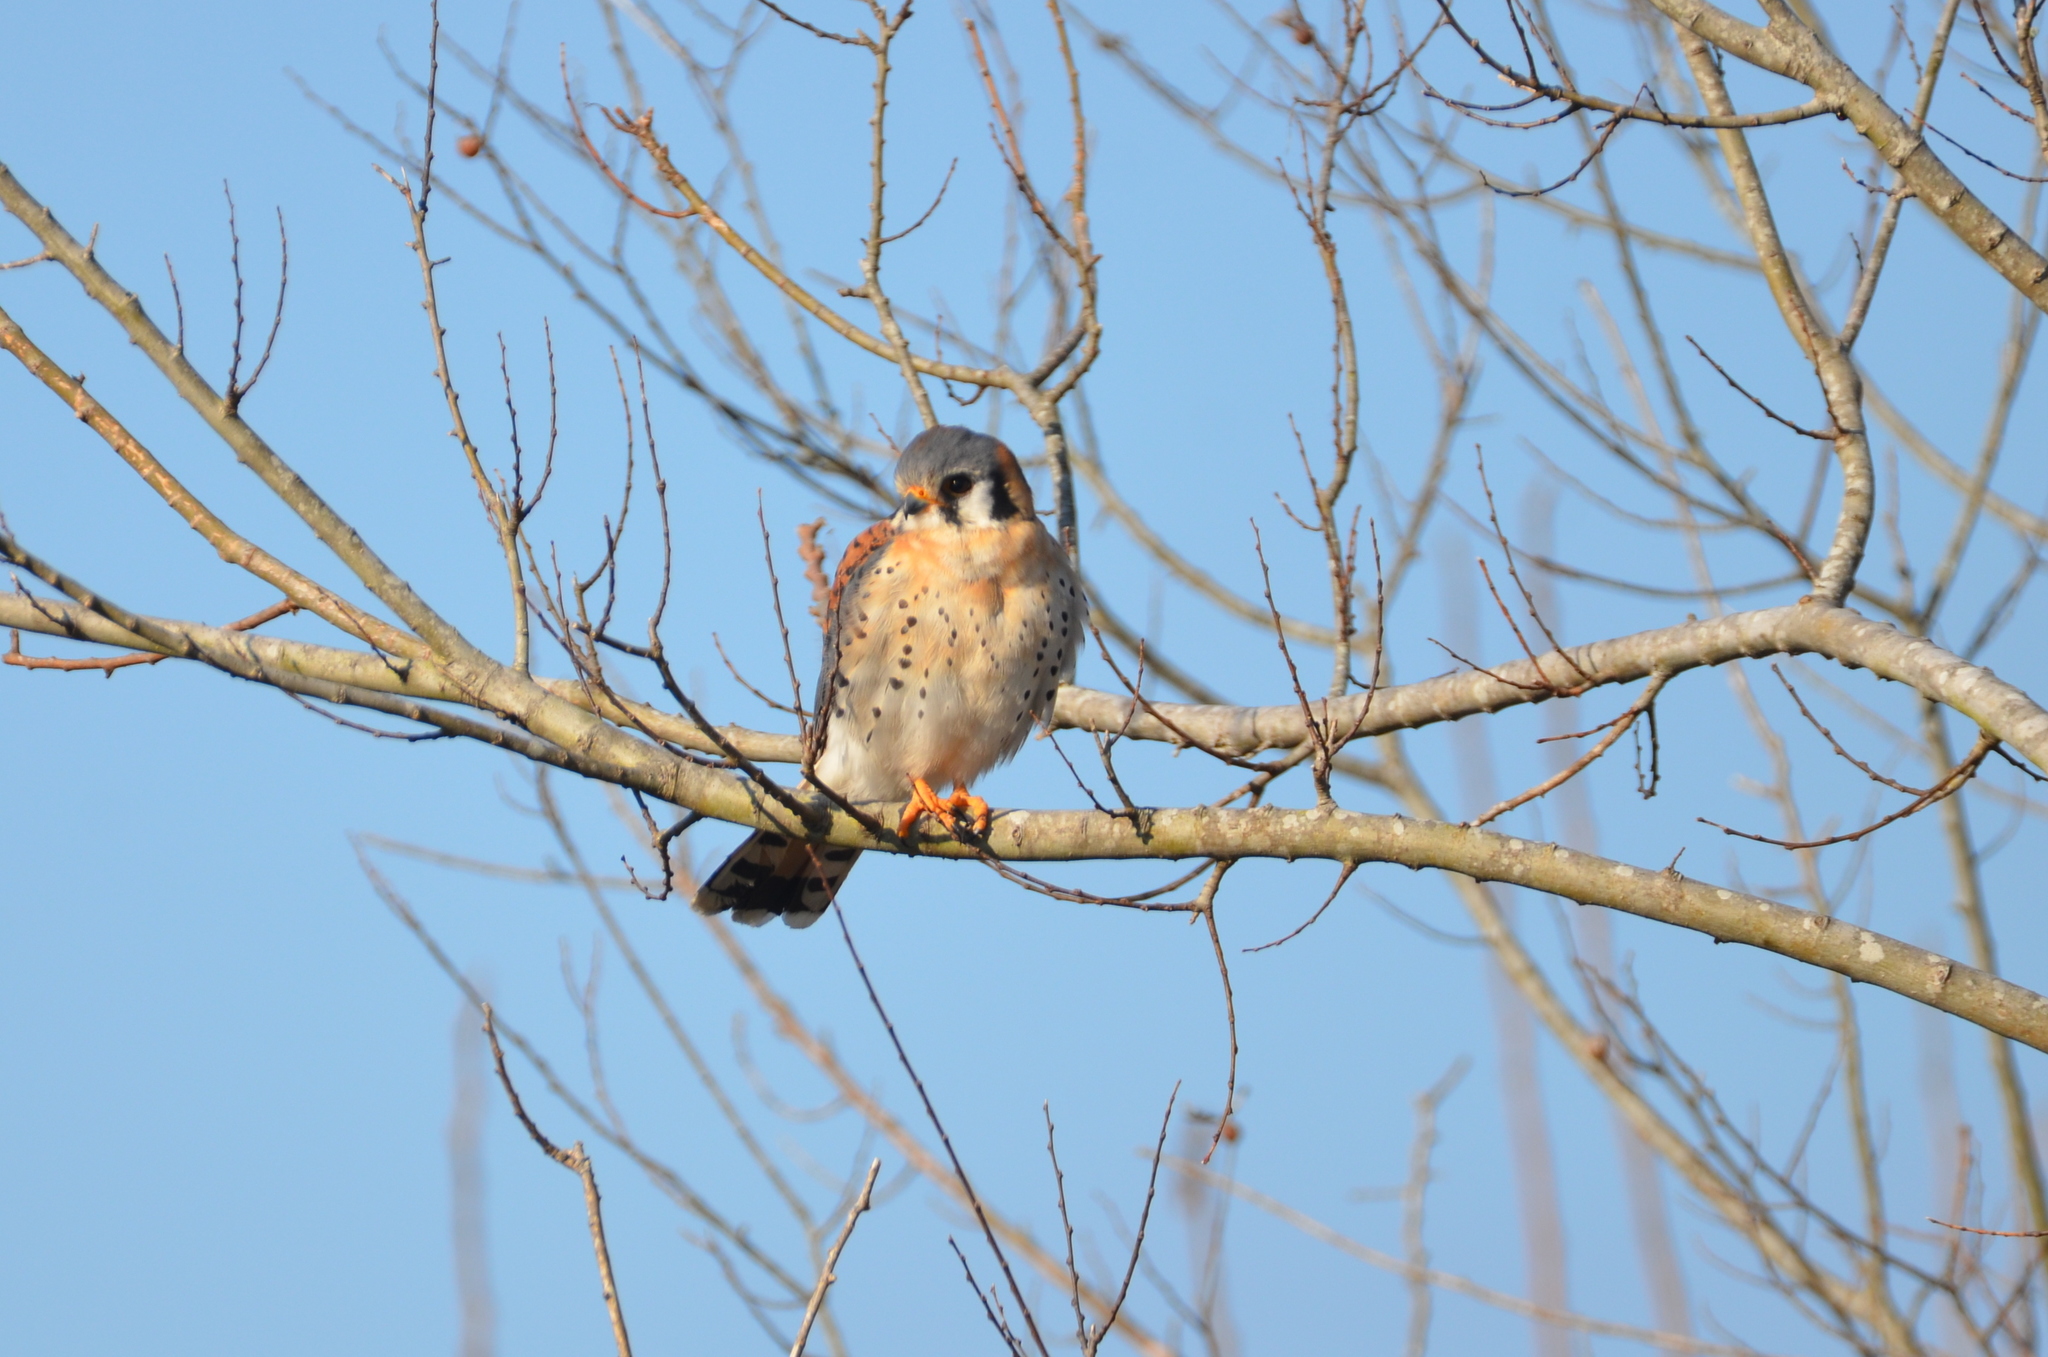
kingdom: Animalia
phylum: Chordata
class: Aves
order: Falconiformes
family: Falconidae
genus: Falco
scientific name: Falco sparverius
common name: American kestrel
